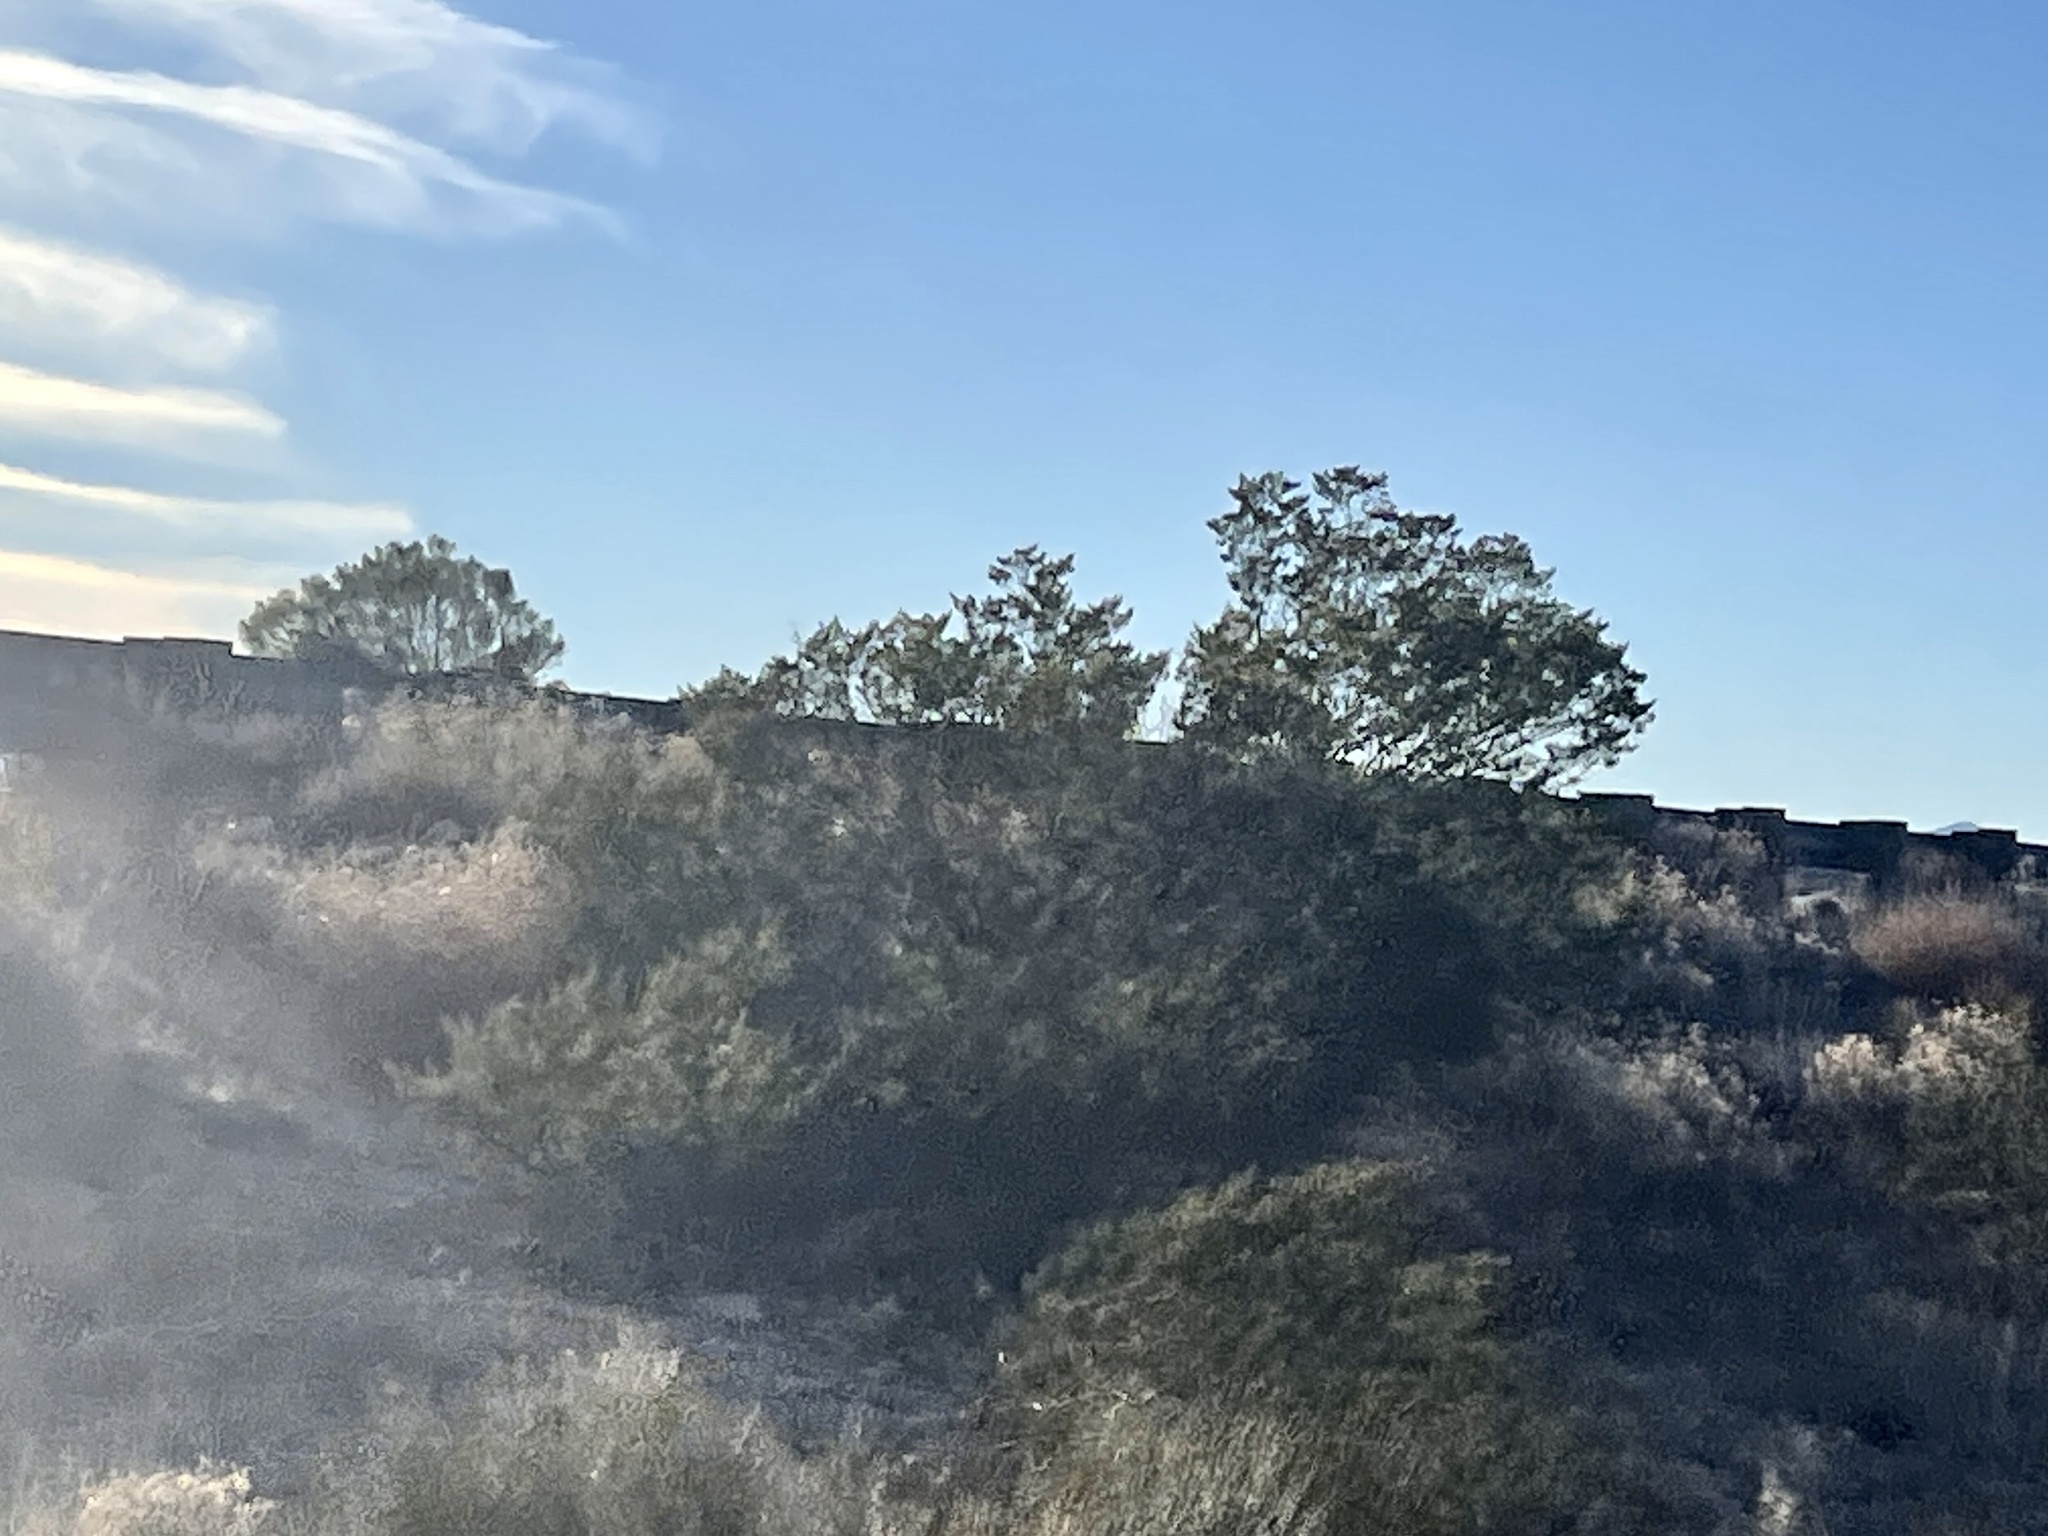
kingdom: Plantae
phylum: Tracheophyta
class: Magnoliopsida
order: Zygophyllales
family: Zygophyllaceae
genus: Larrea
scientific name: Larrea tridentata
